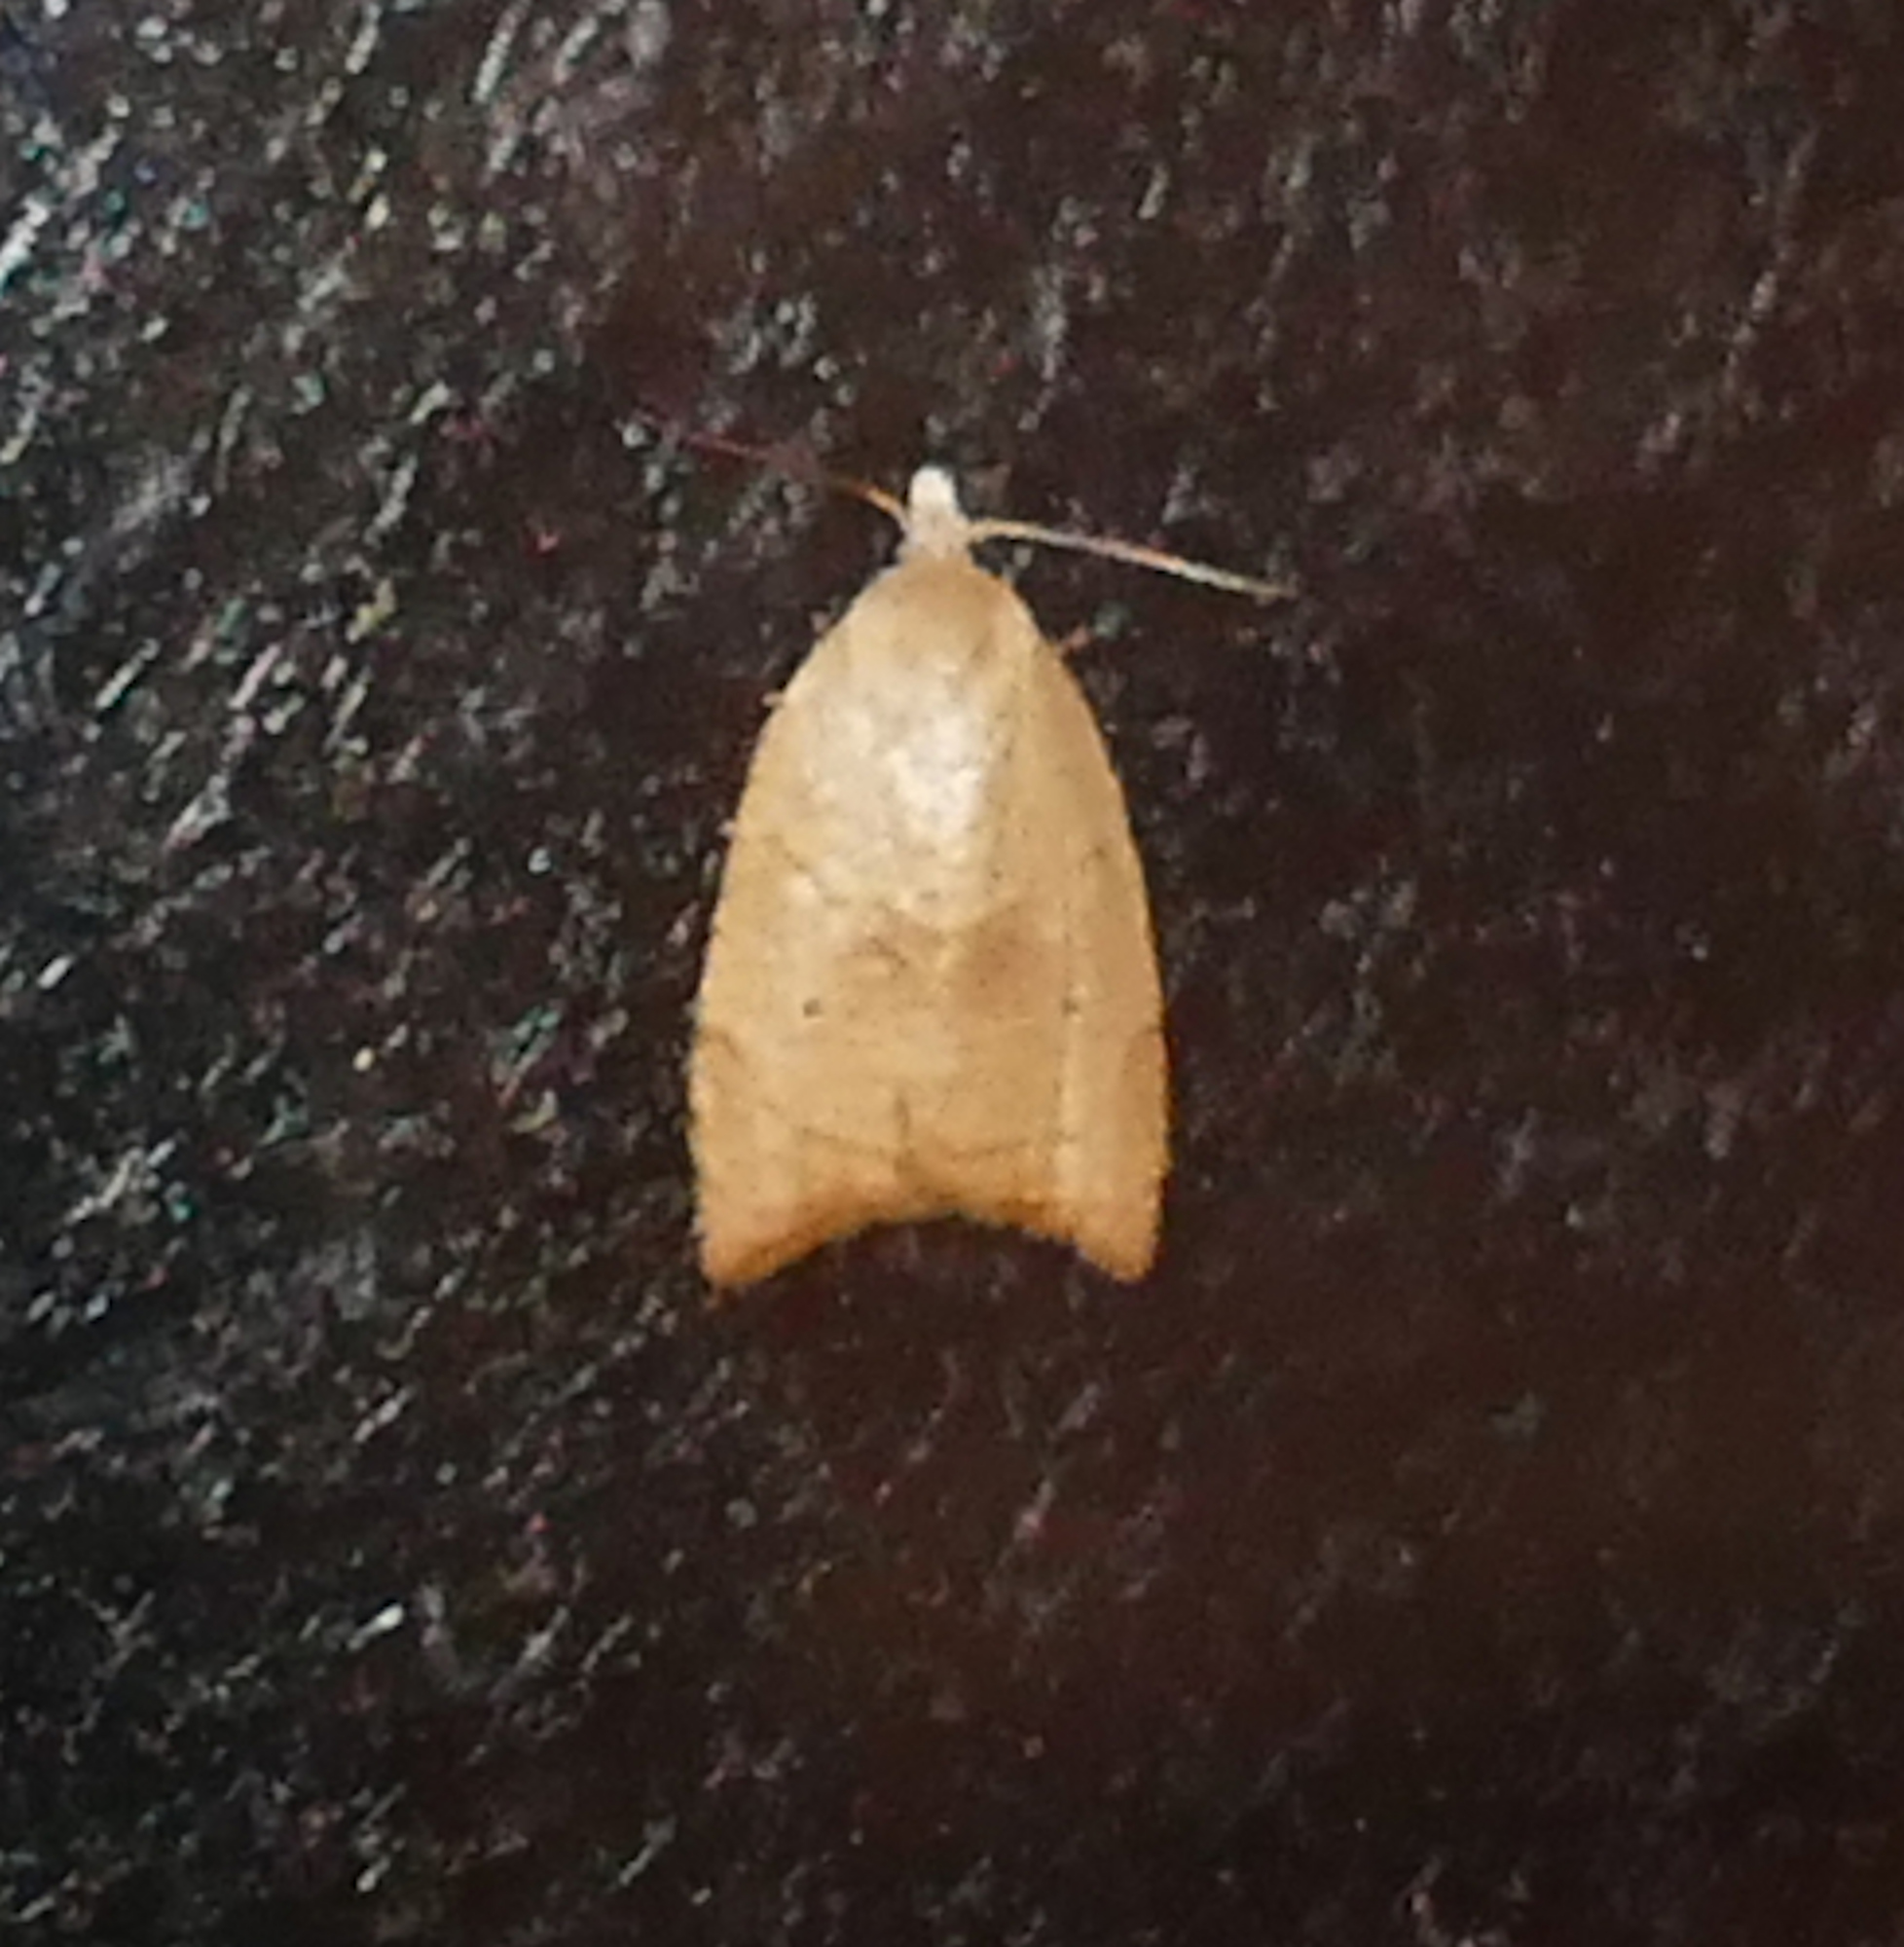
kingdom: Animalia
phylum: Arthropoda
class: Insecta
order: Lepidoptera
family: Tortricidae
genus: Coelostathma
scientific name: Coelostathma discopunctana
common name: Batman moth
